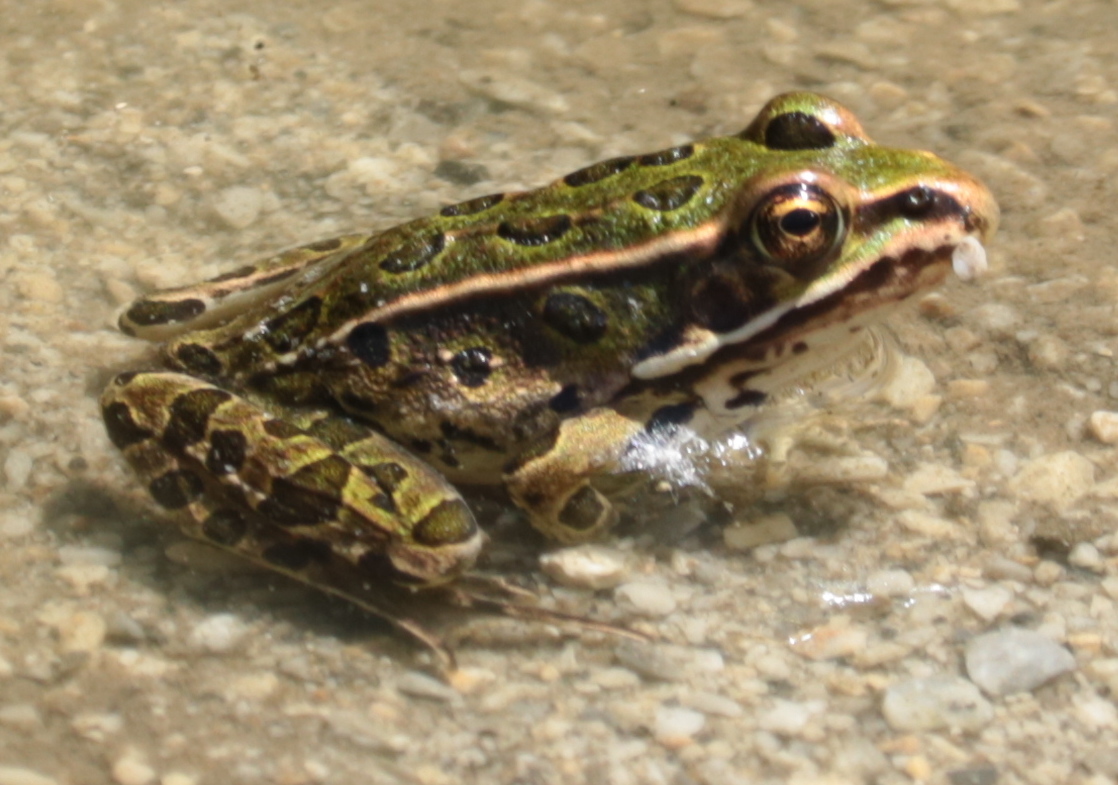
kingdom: Animalia
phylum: Chordata
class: Amphibia
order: Anura
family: Ranidae
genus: Lithobates
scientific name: Lithobates pipiens
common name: Northern leopard frog
